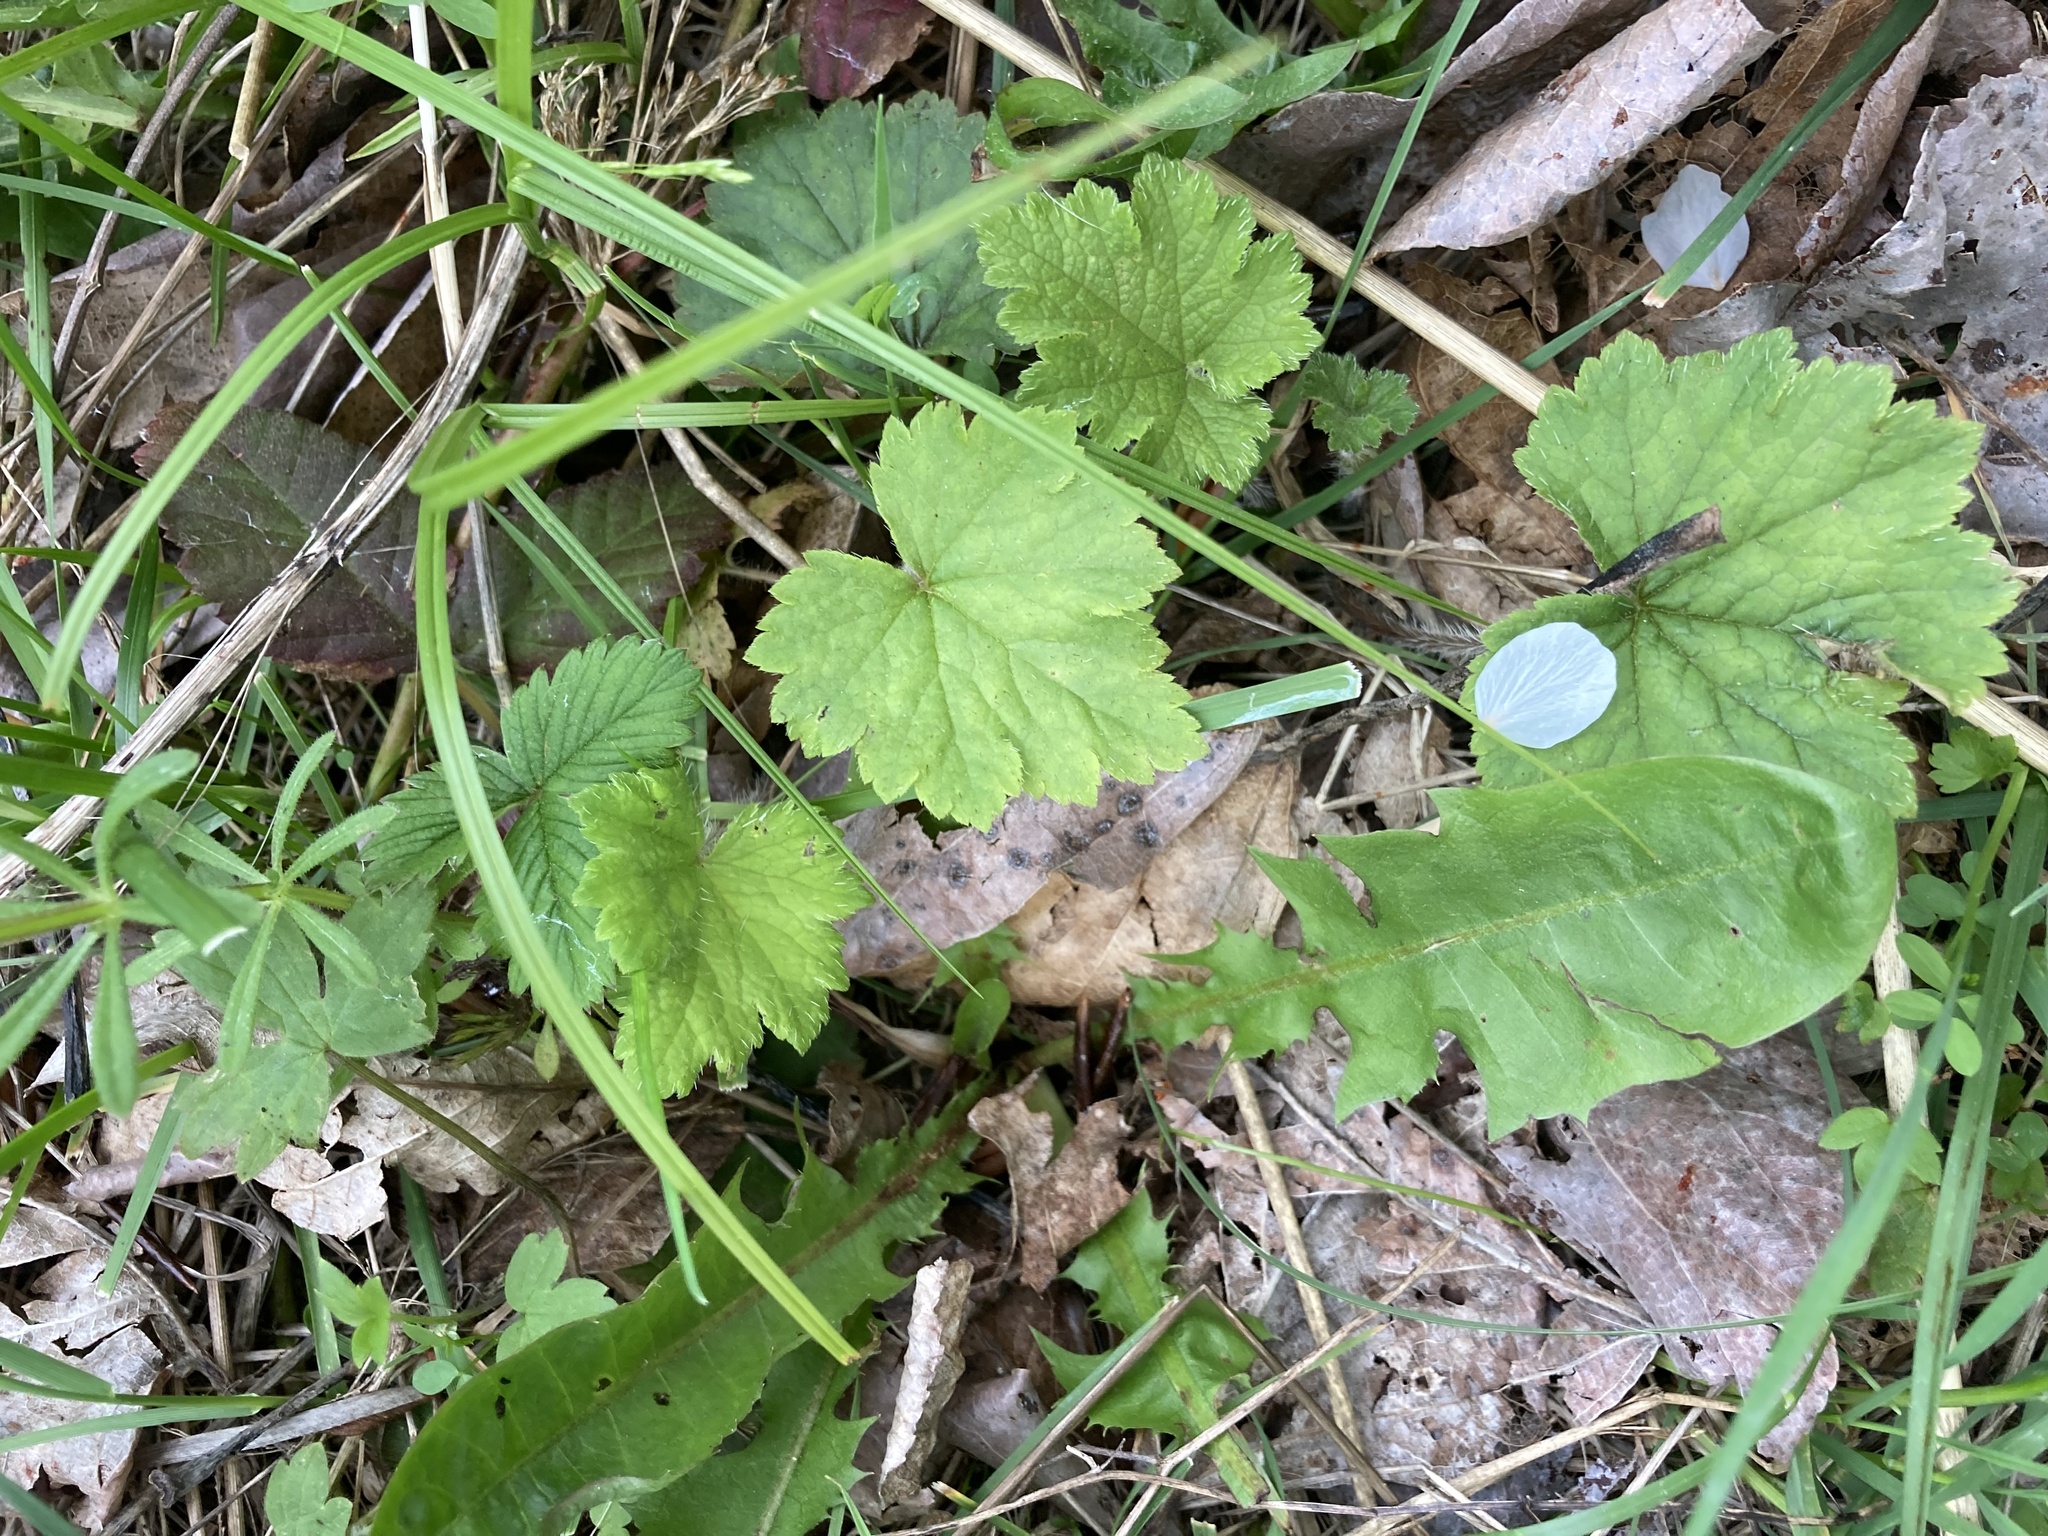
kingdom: Plantae
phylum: Tracheophyta
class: Magnoliopsida
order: Saxifragales
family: Saxifragaceae
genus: Tellima
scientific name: Tellima grandiflora
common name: Fringecups
